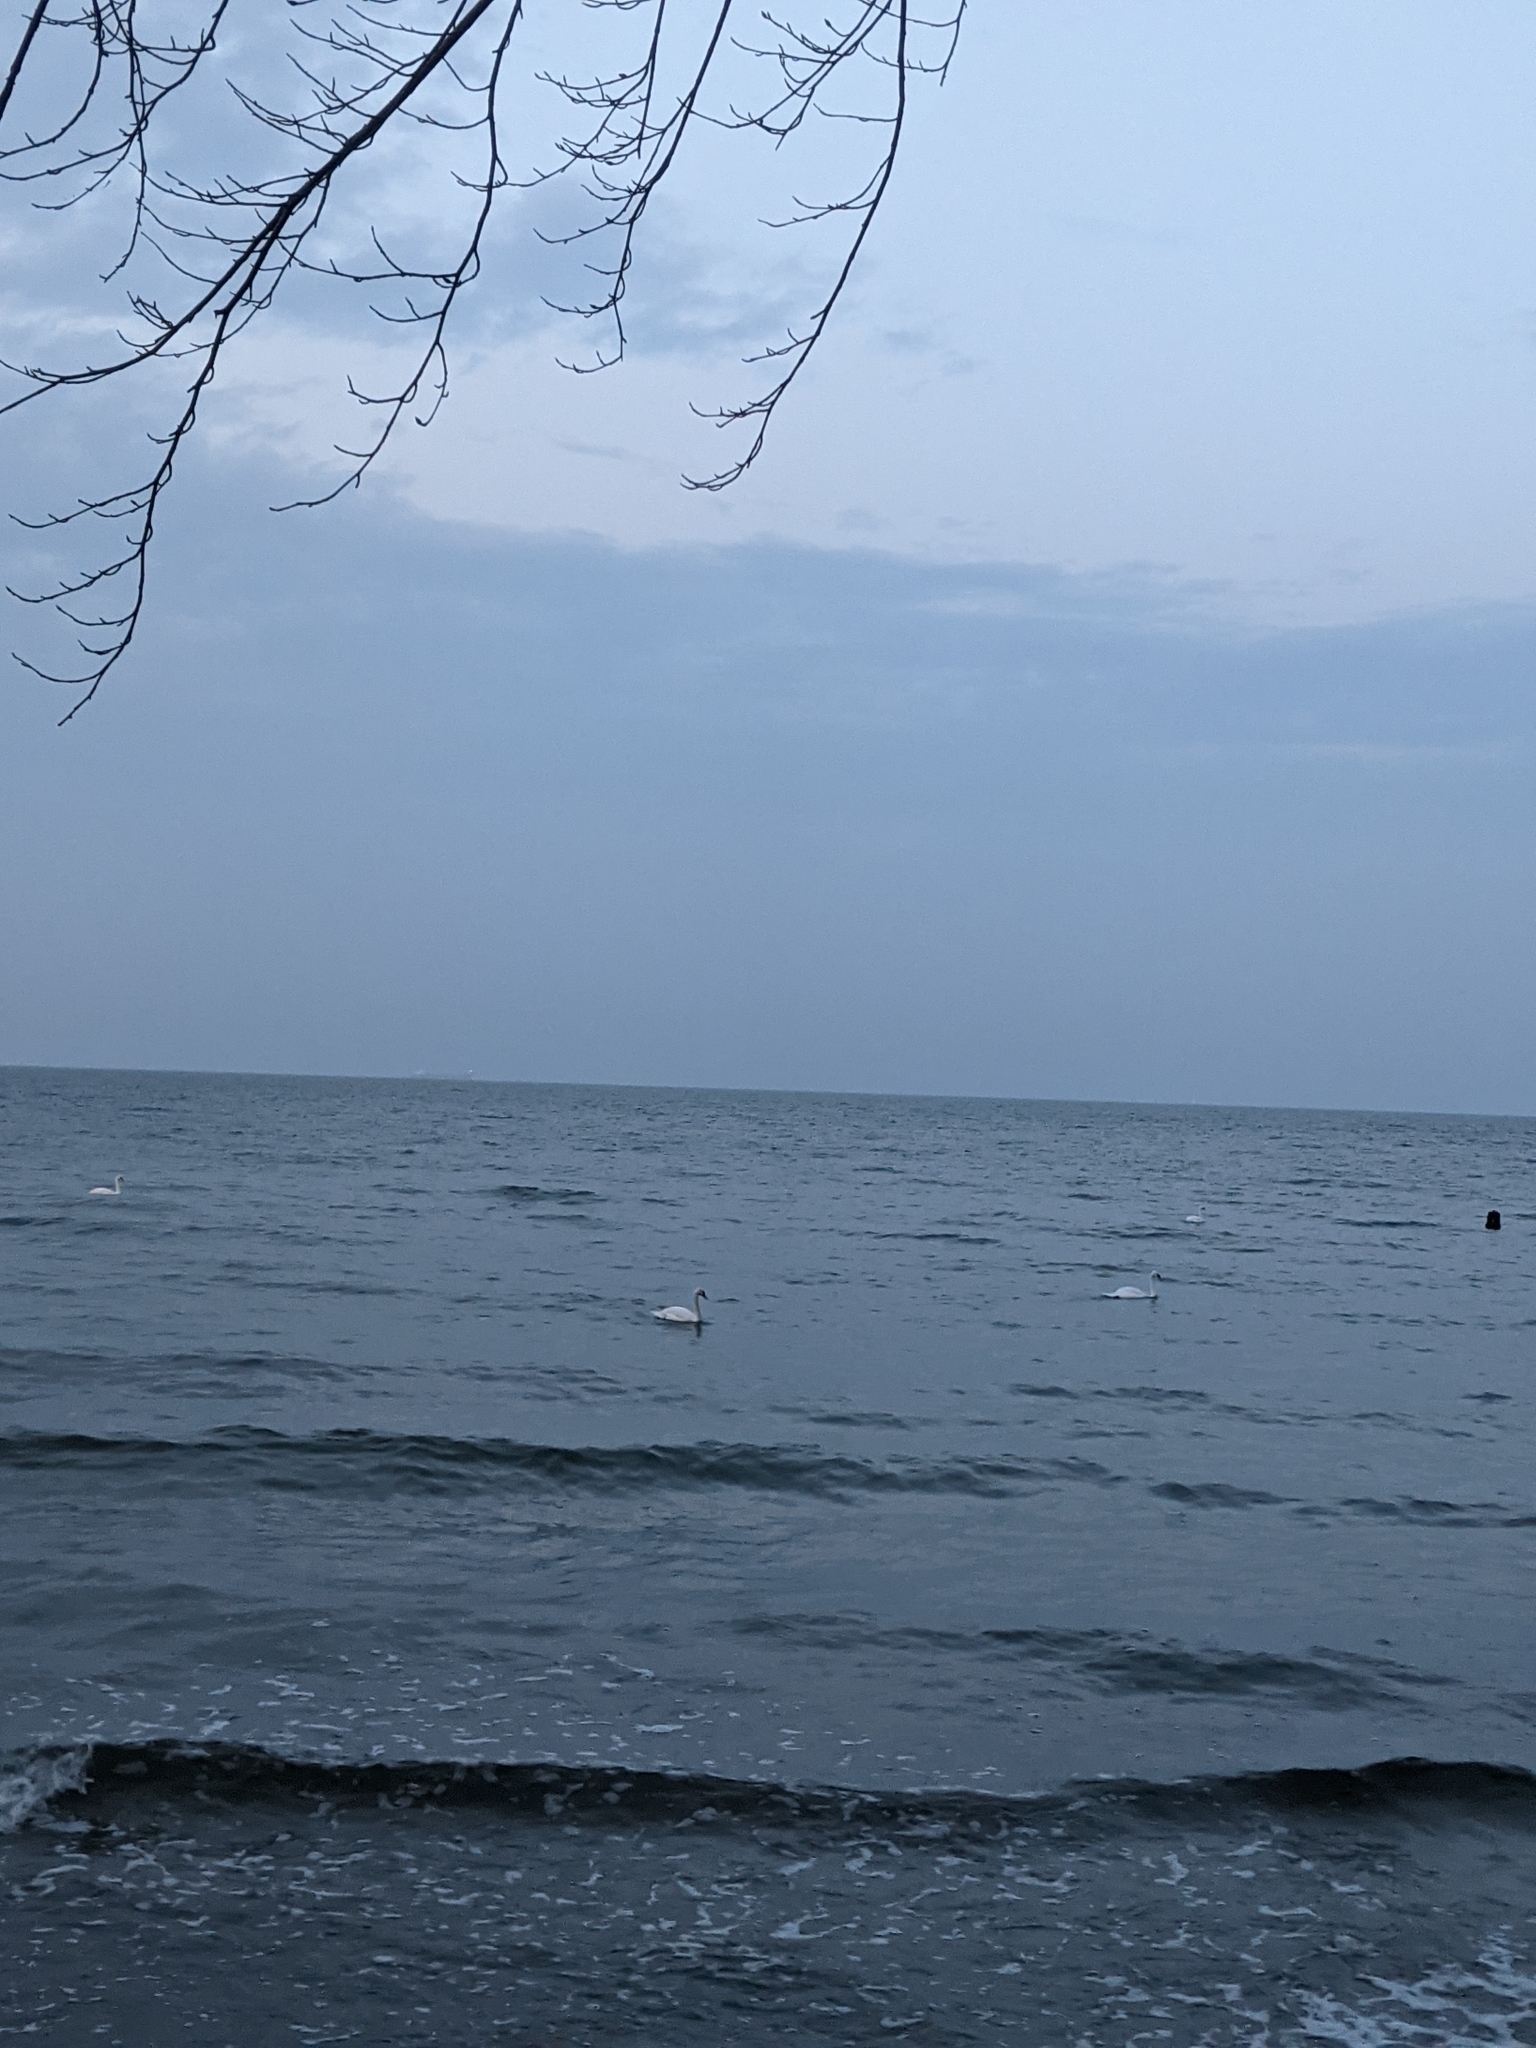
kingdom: Animalia
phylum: Chordata
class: Aves
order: Anseriformes
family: Anatidae
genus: Cygnus
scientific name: Cygnus olor
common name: Mute swan
